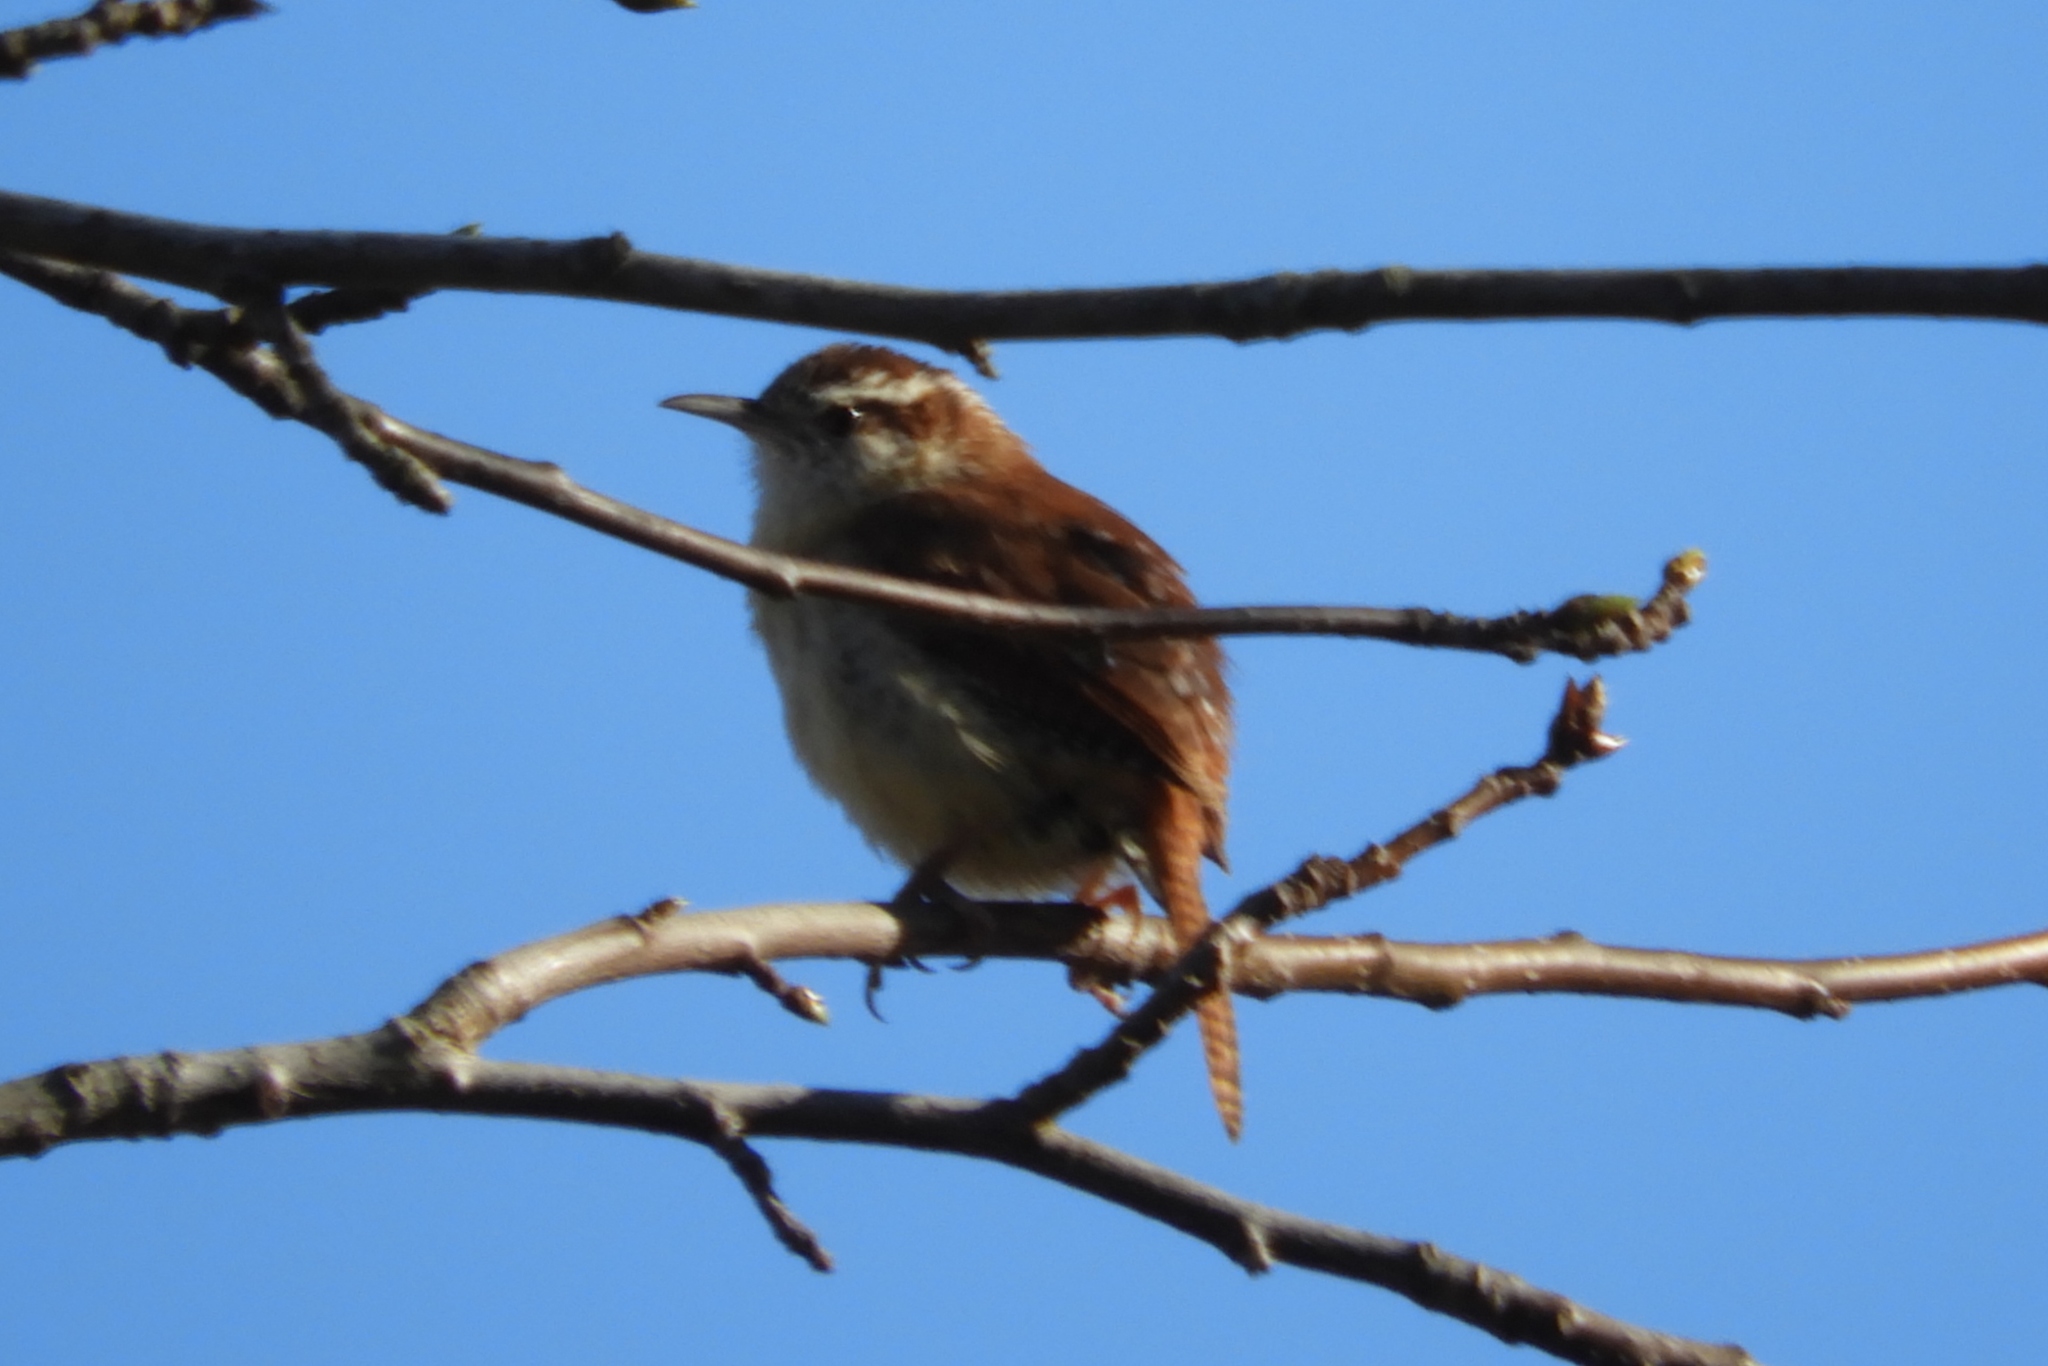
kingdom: Animalia
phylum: Chordata
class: Aves
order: Passeriformes
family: Troglodytidae
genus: Thryothorus
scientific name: Thryothorus ludovicianus
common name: Carolina wren
